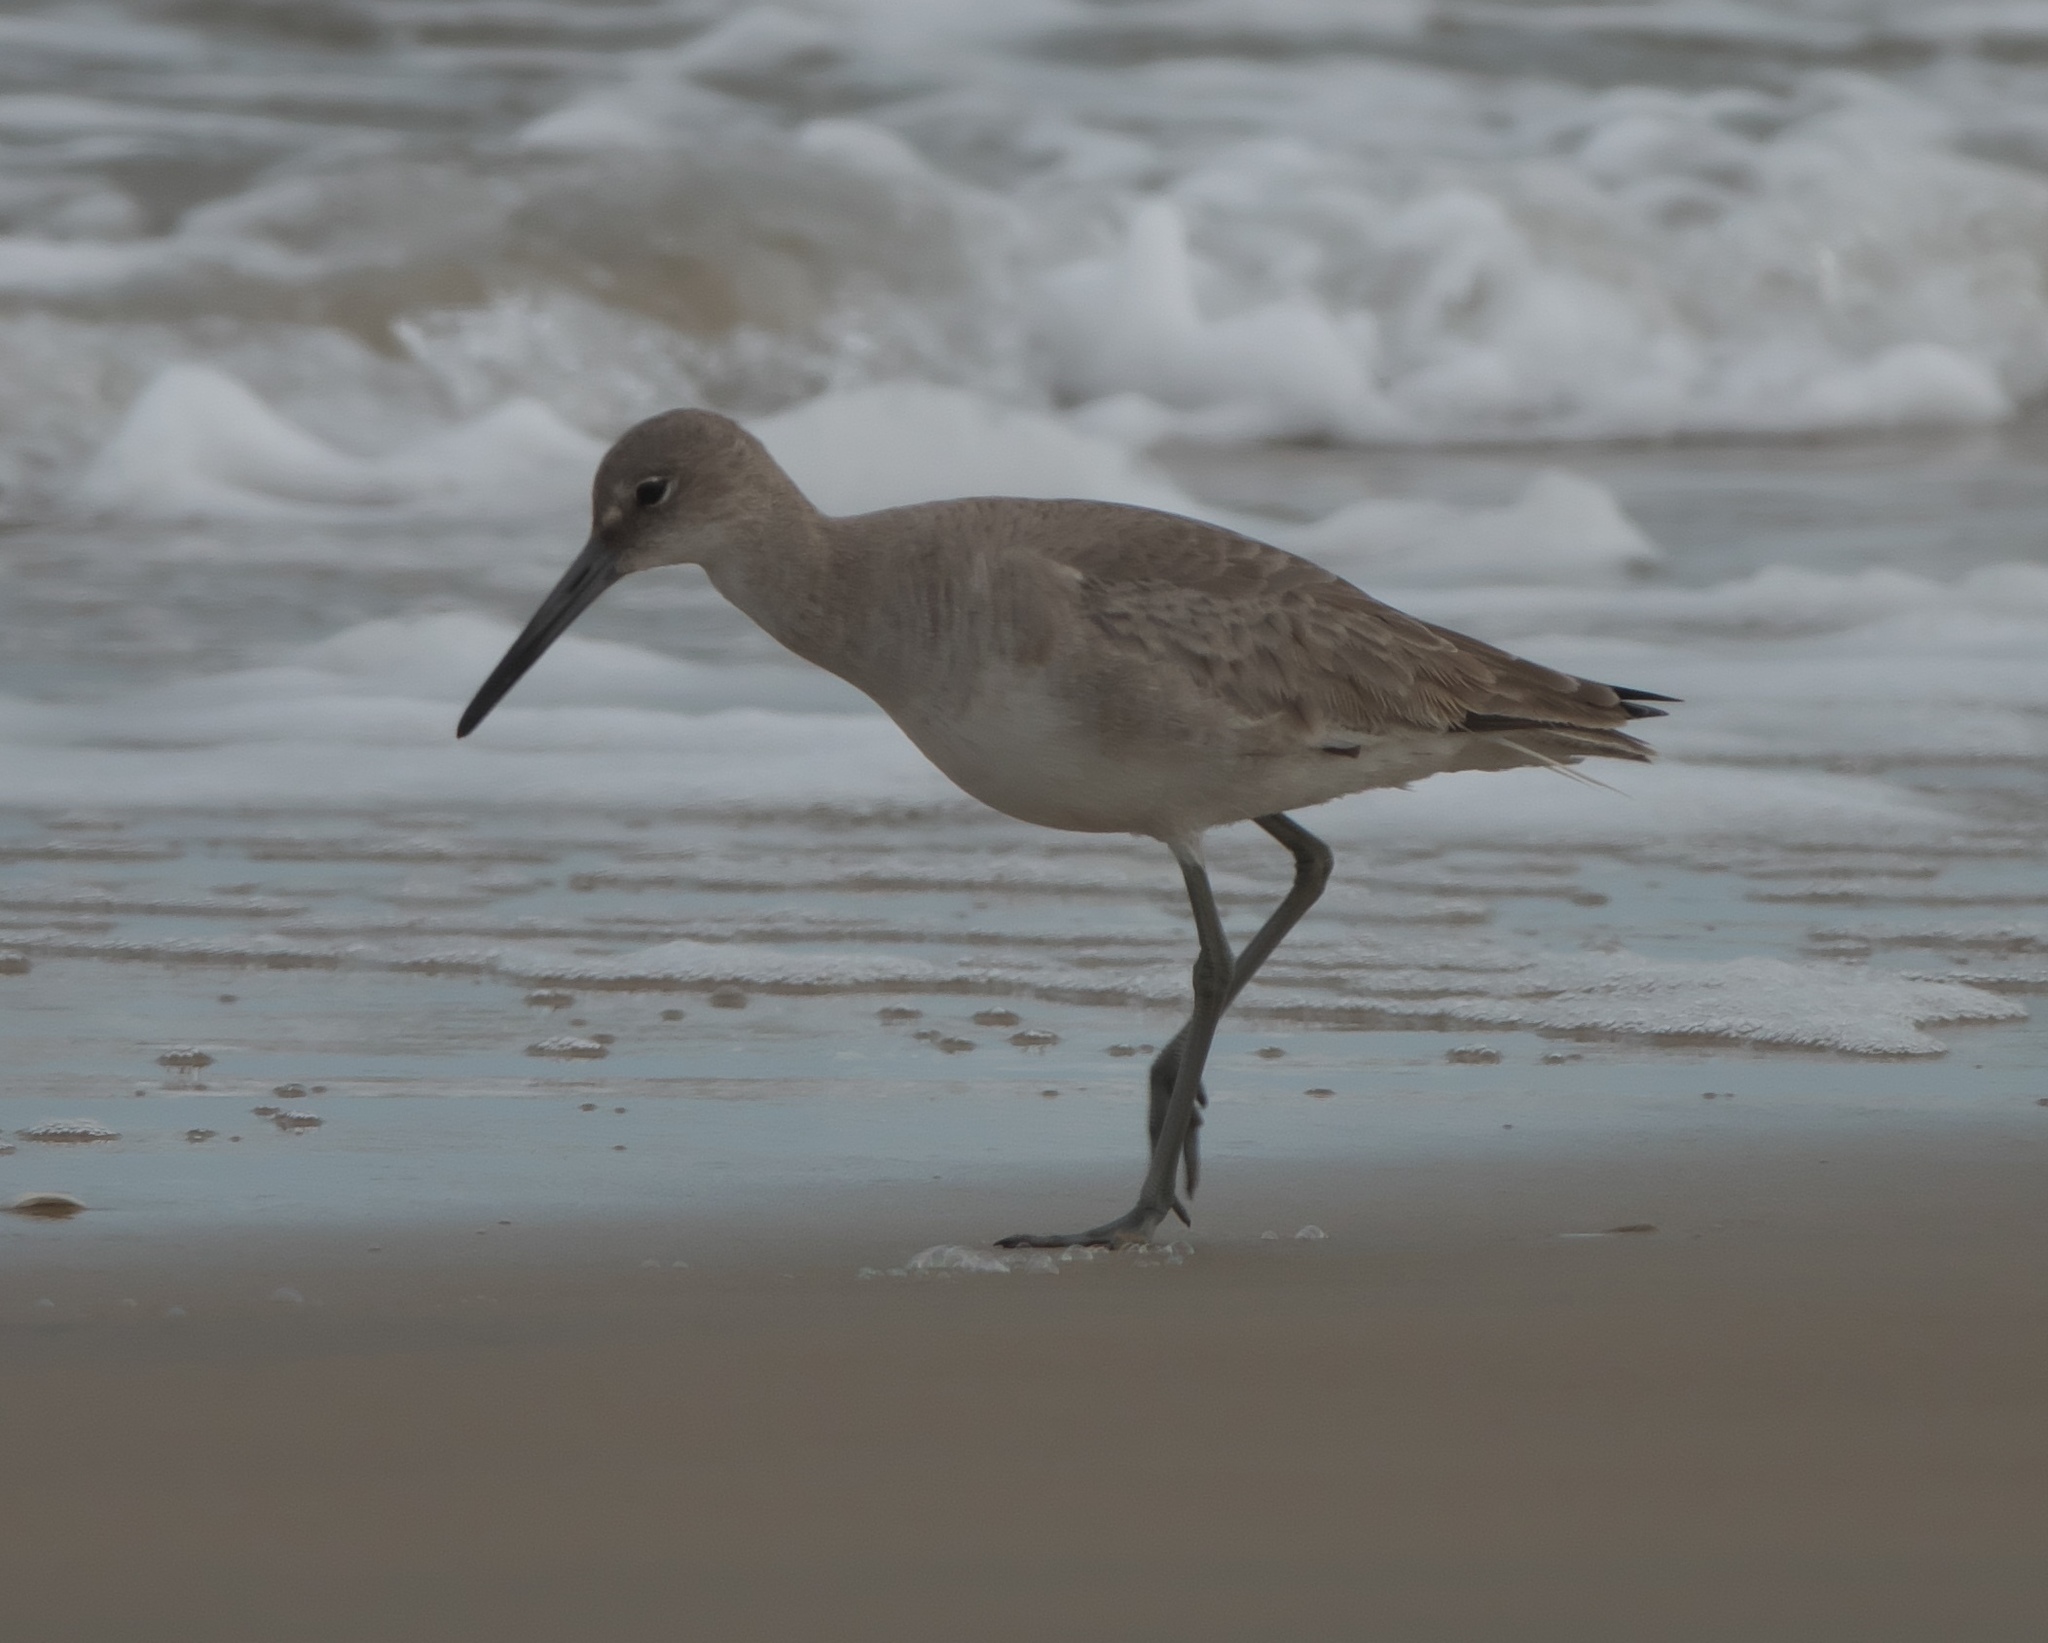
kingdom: Animalia
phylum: Chordata
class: Aves
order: Charadriiformes
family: Scolopacidae
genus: Tringa
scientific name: Tringa semipalmata
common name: Willet
